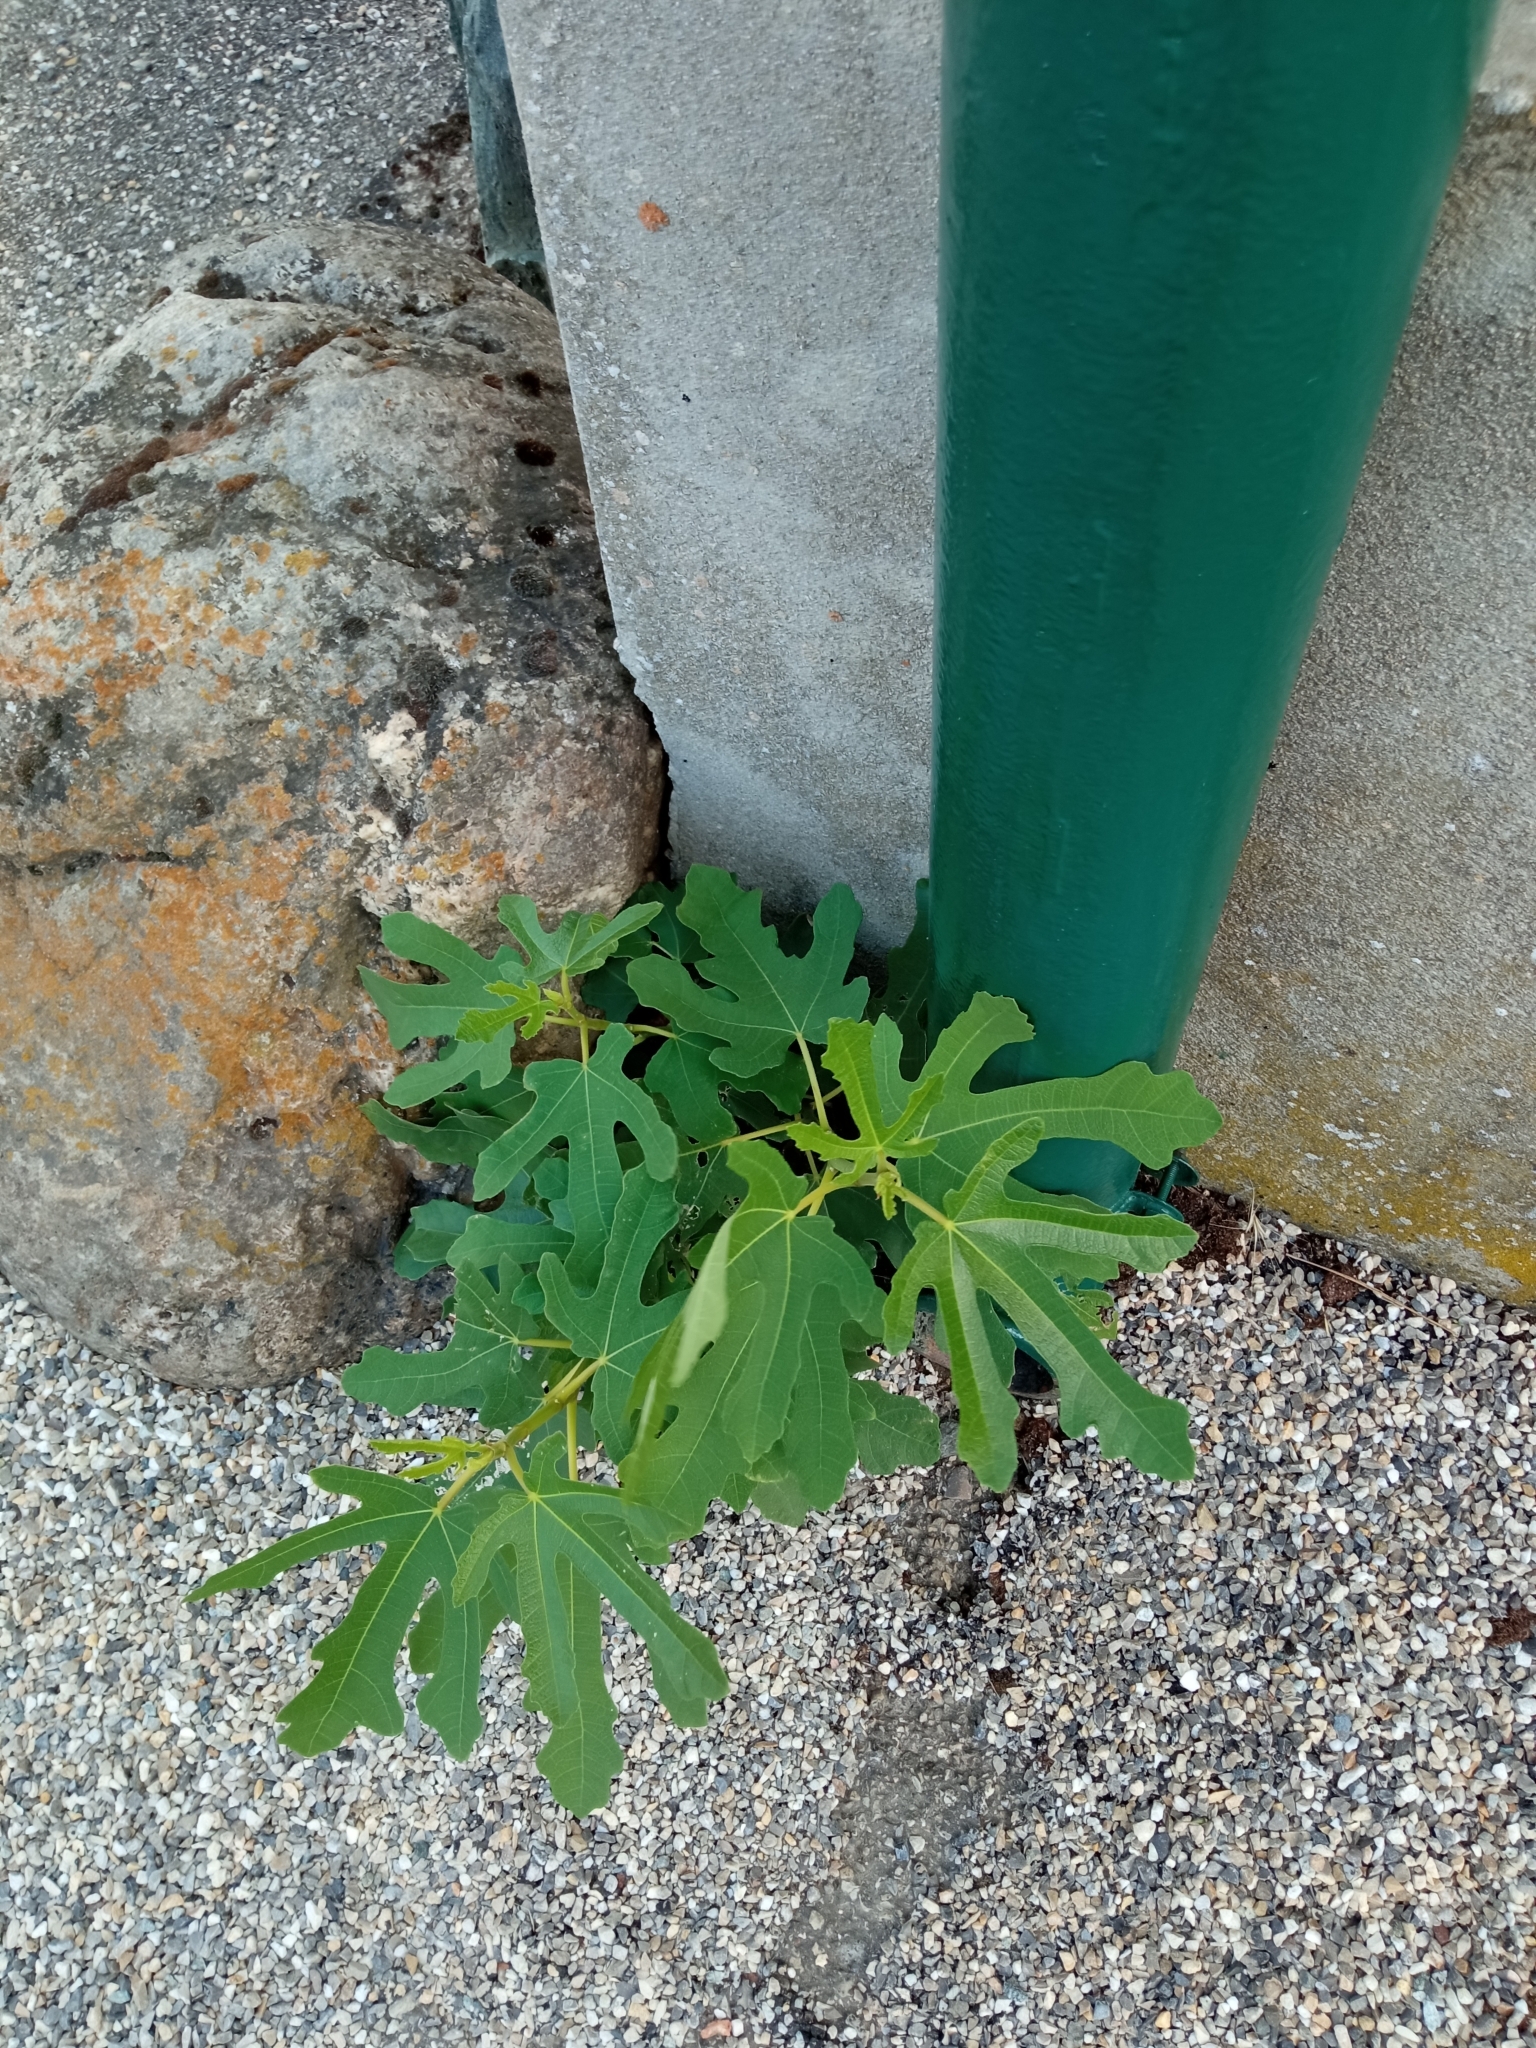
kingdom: Plantae
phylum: Tracheophyta
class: Magnoliopsida
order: Rosales
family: Moraceae
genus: Ficus
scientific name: Ficus carica
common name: Fig
